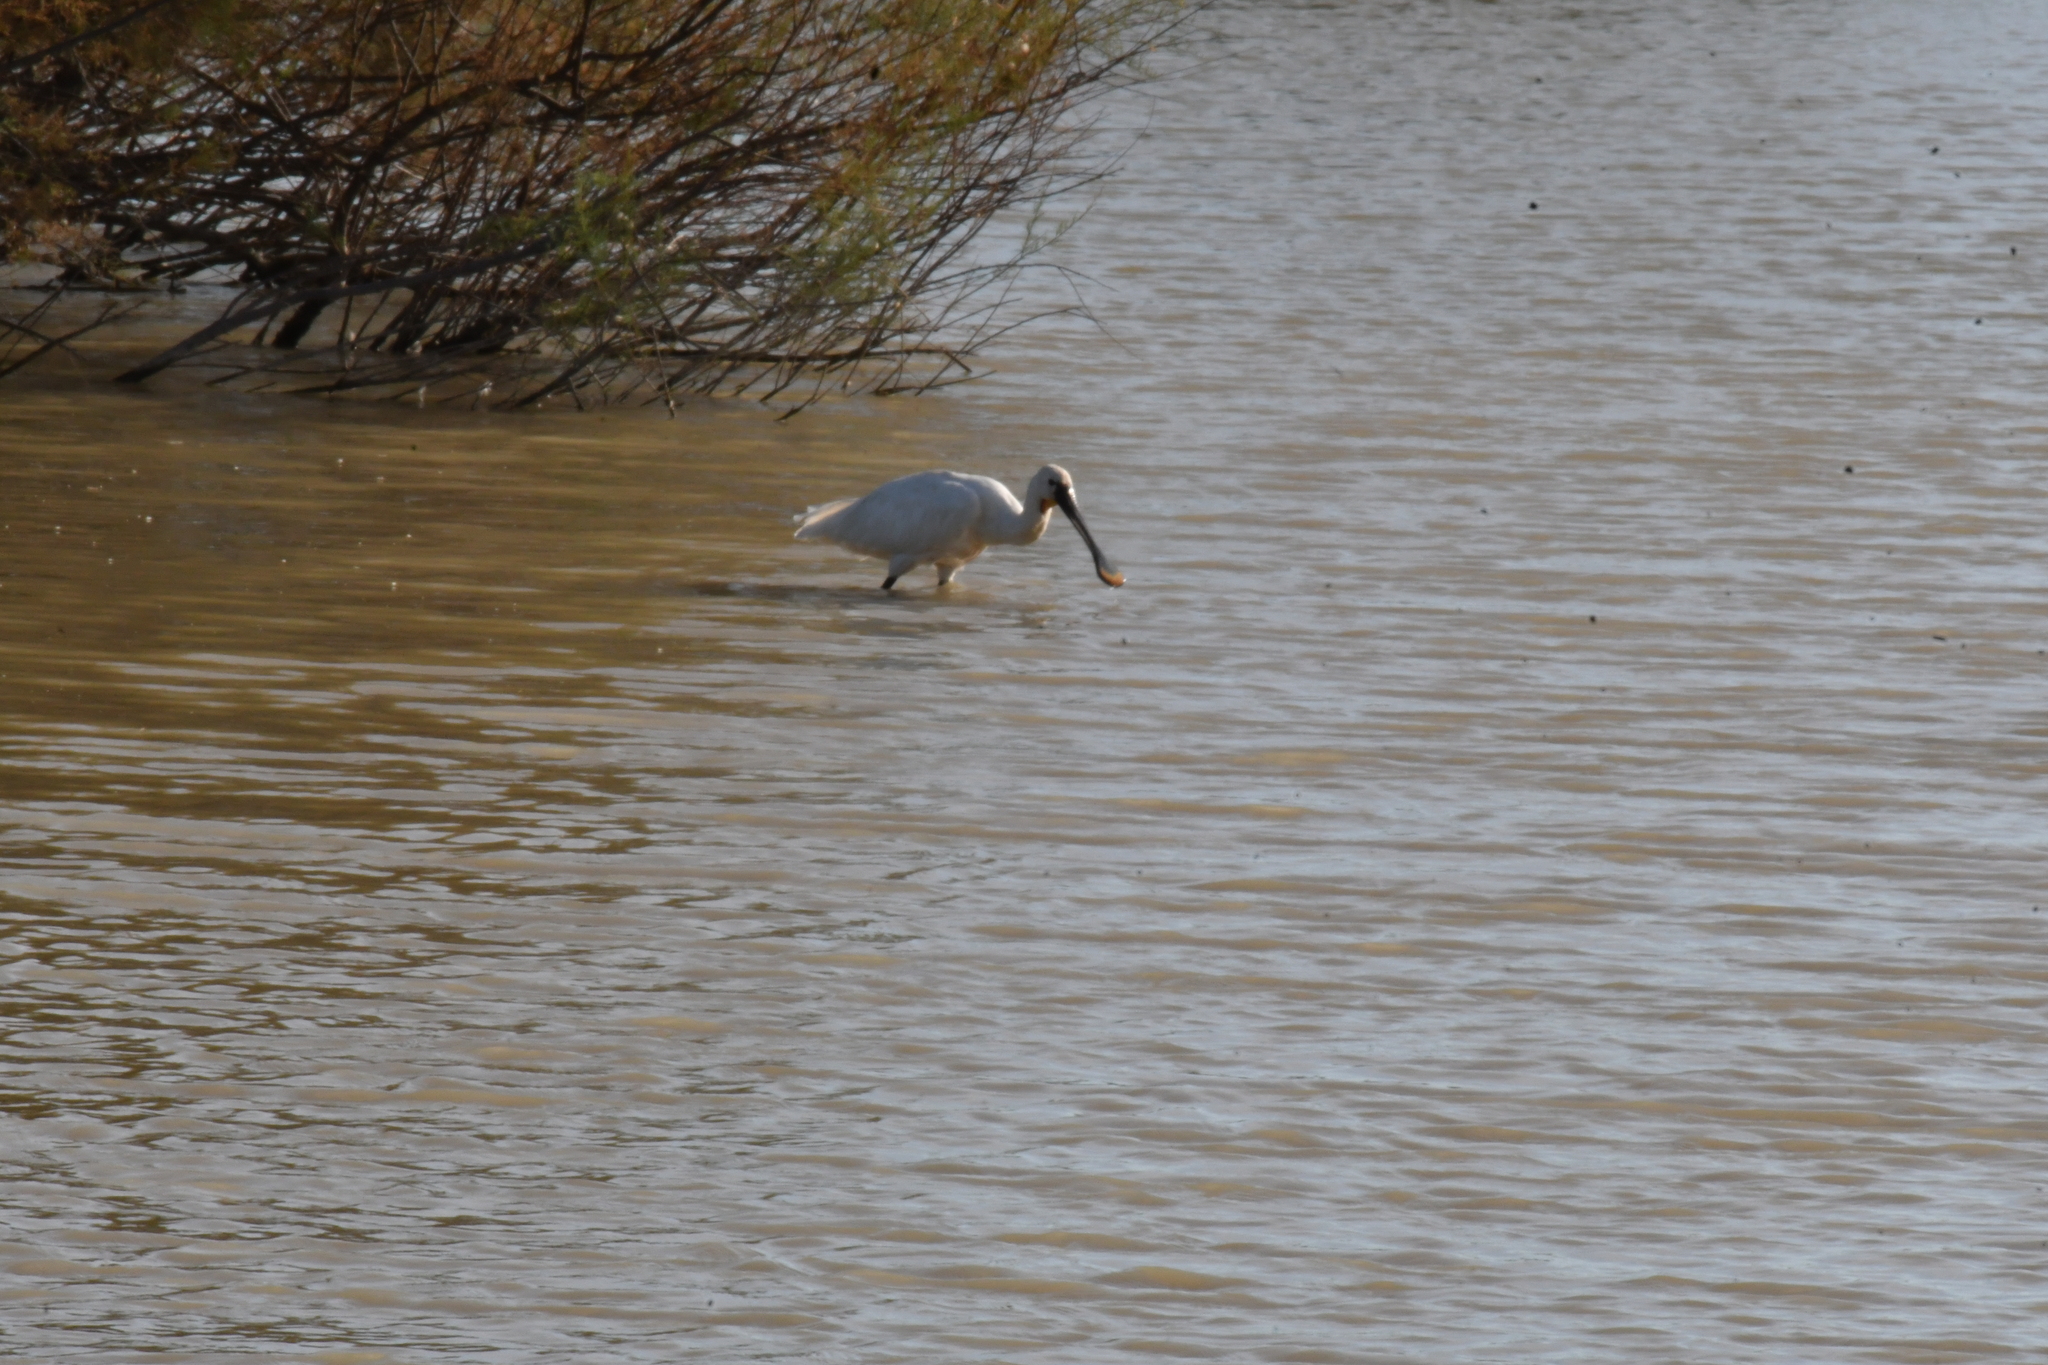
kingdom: Animalia
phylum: Chordata
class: Aves
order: Pelecaniformes
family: Threskiornithidae
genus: Platalea
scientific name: Platalea leucorodia
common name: Eurasian spoonbill
